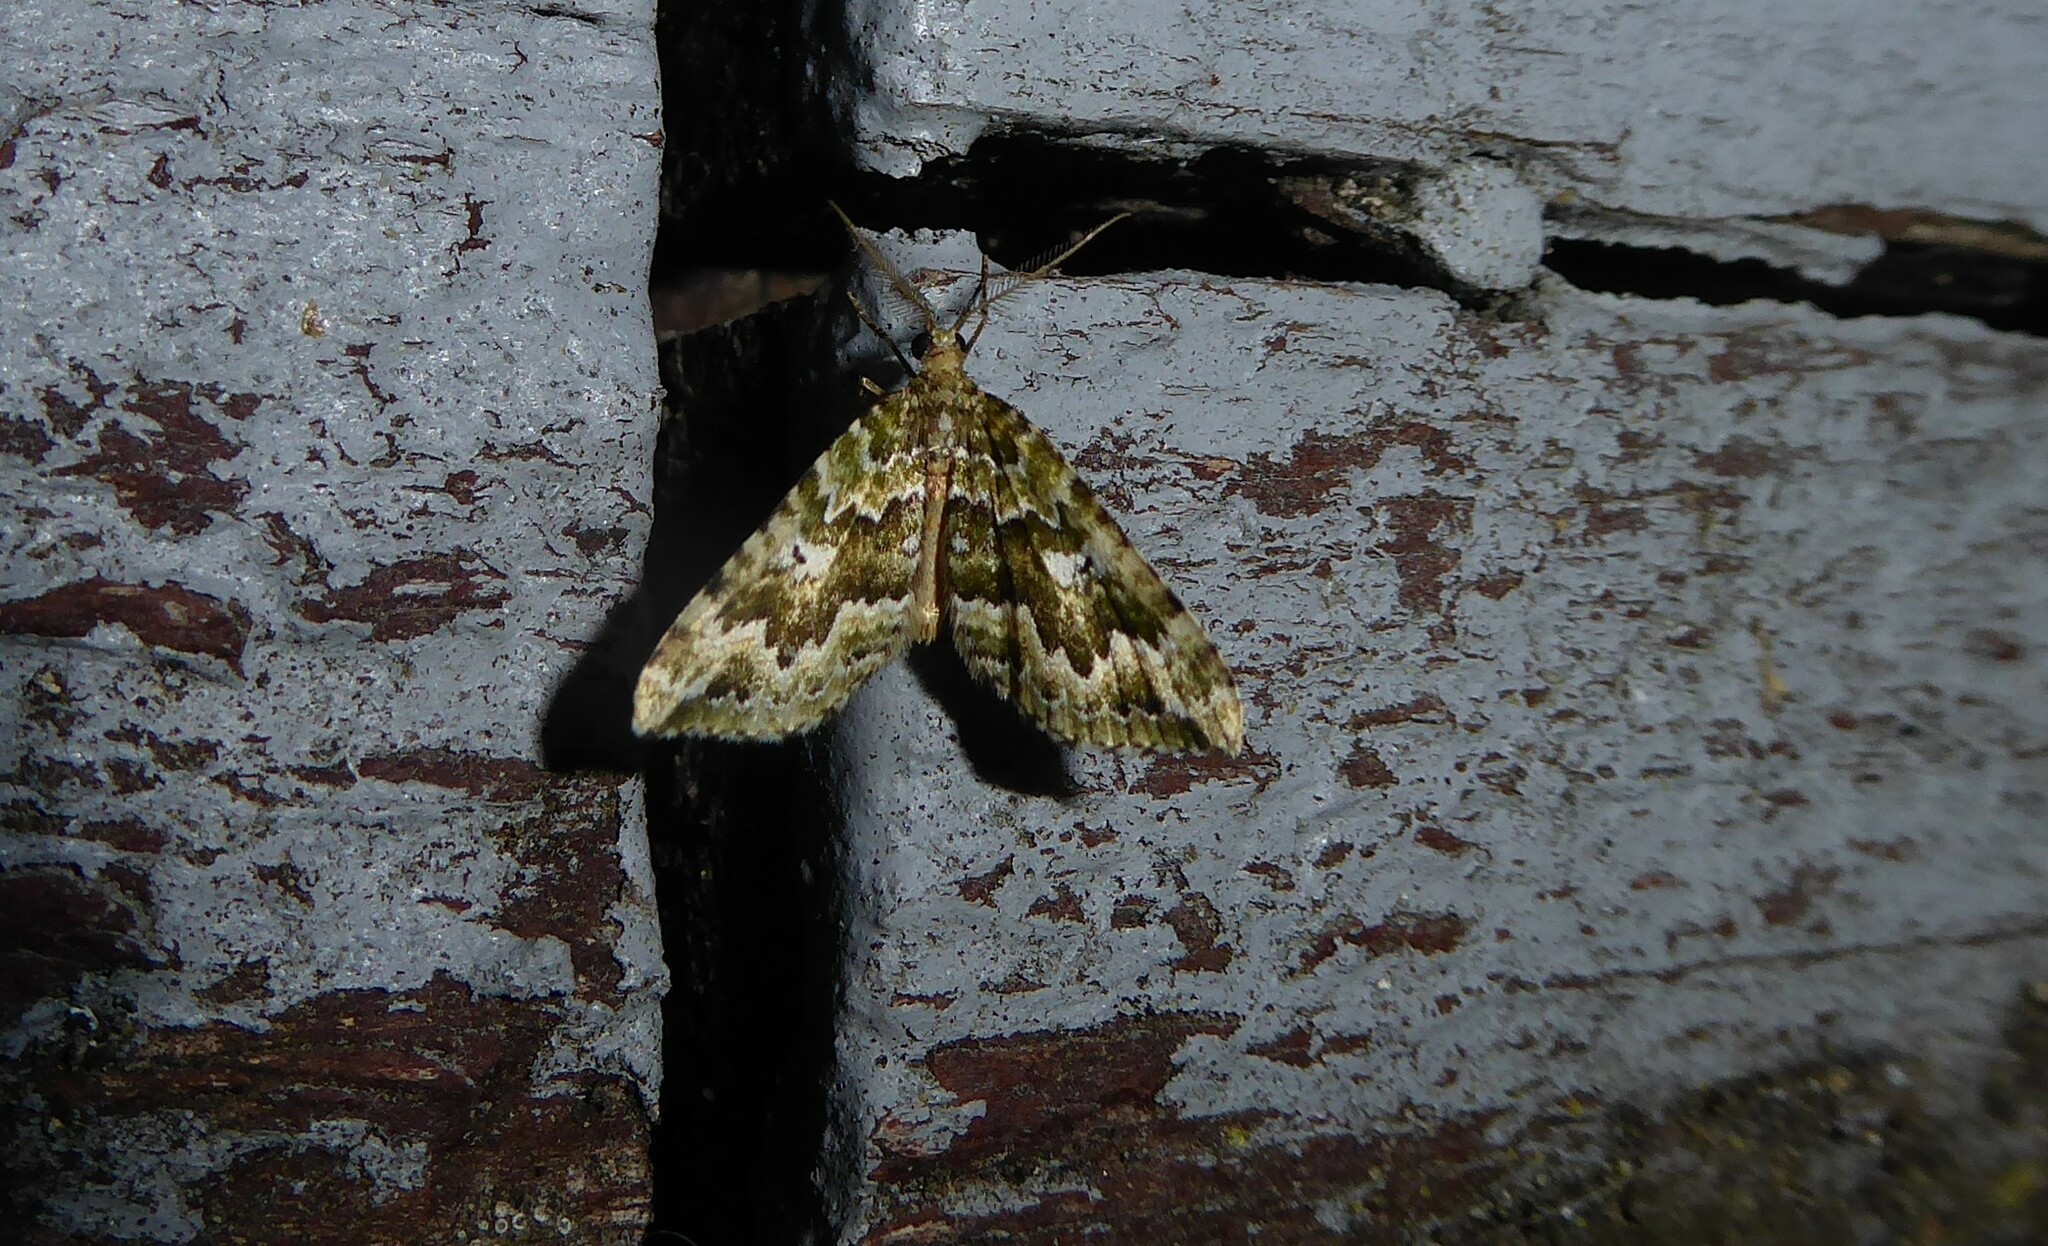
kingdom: Animalia
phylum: Arthropoda
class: Insecta
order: Lepidoptera
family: Geometridae
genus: Asaphodes
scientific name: Asaphodes beata
